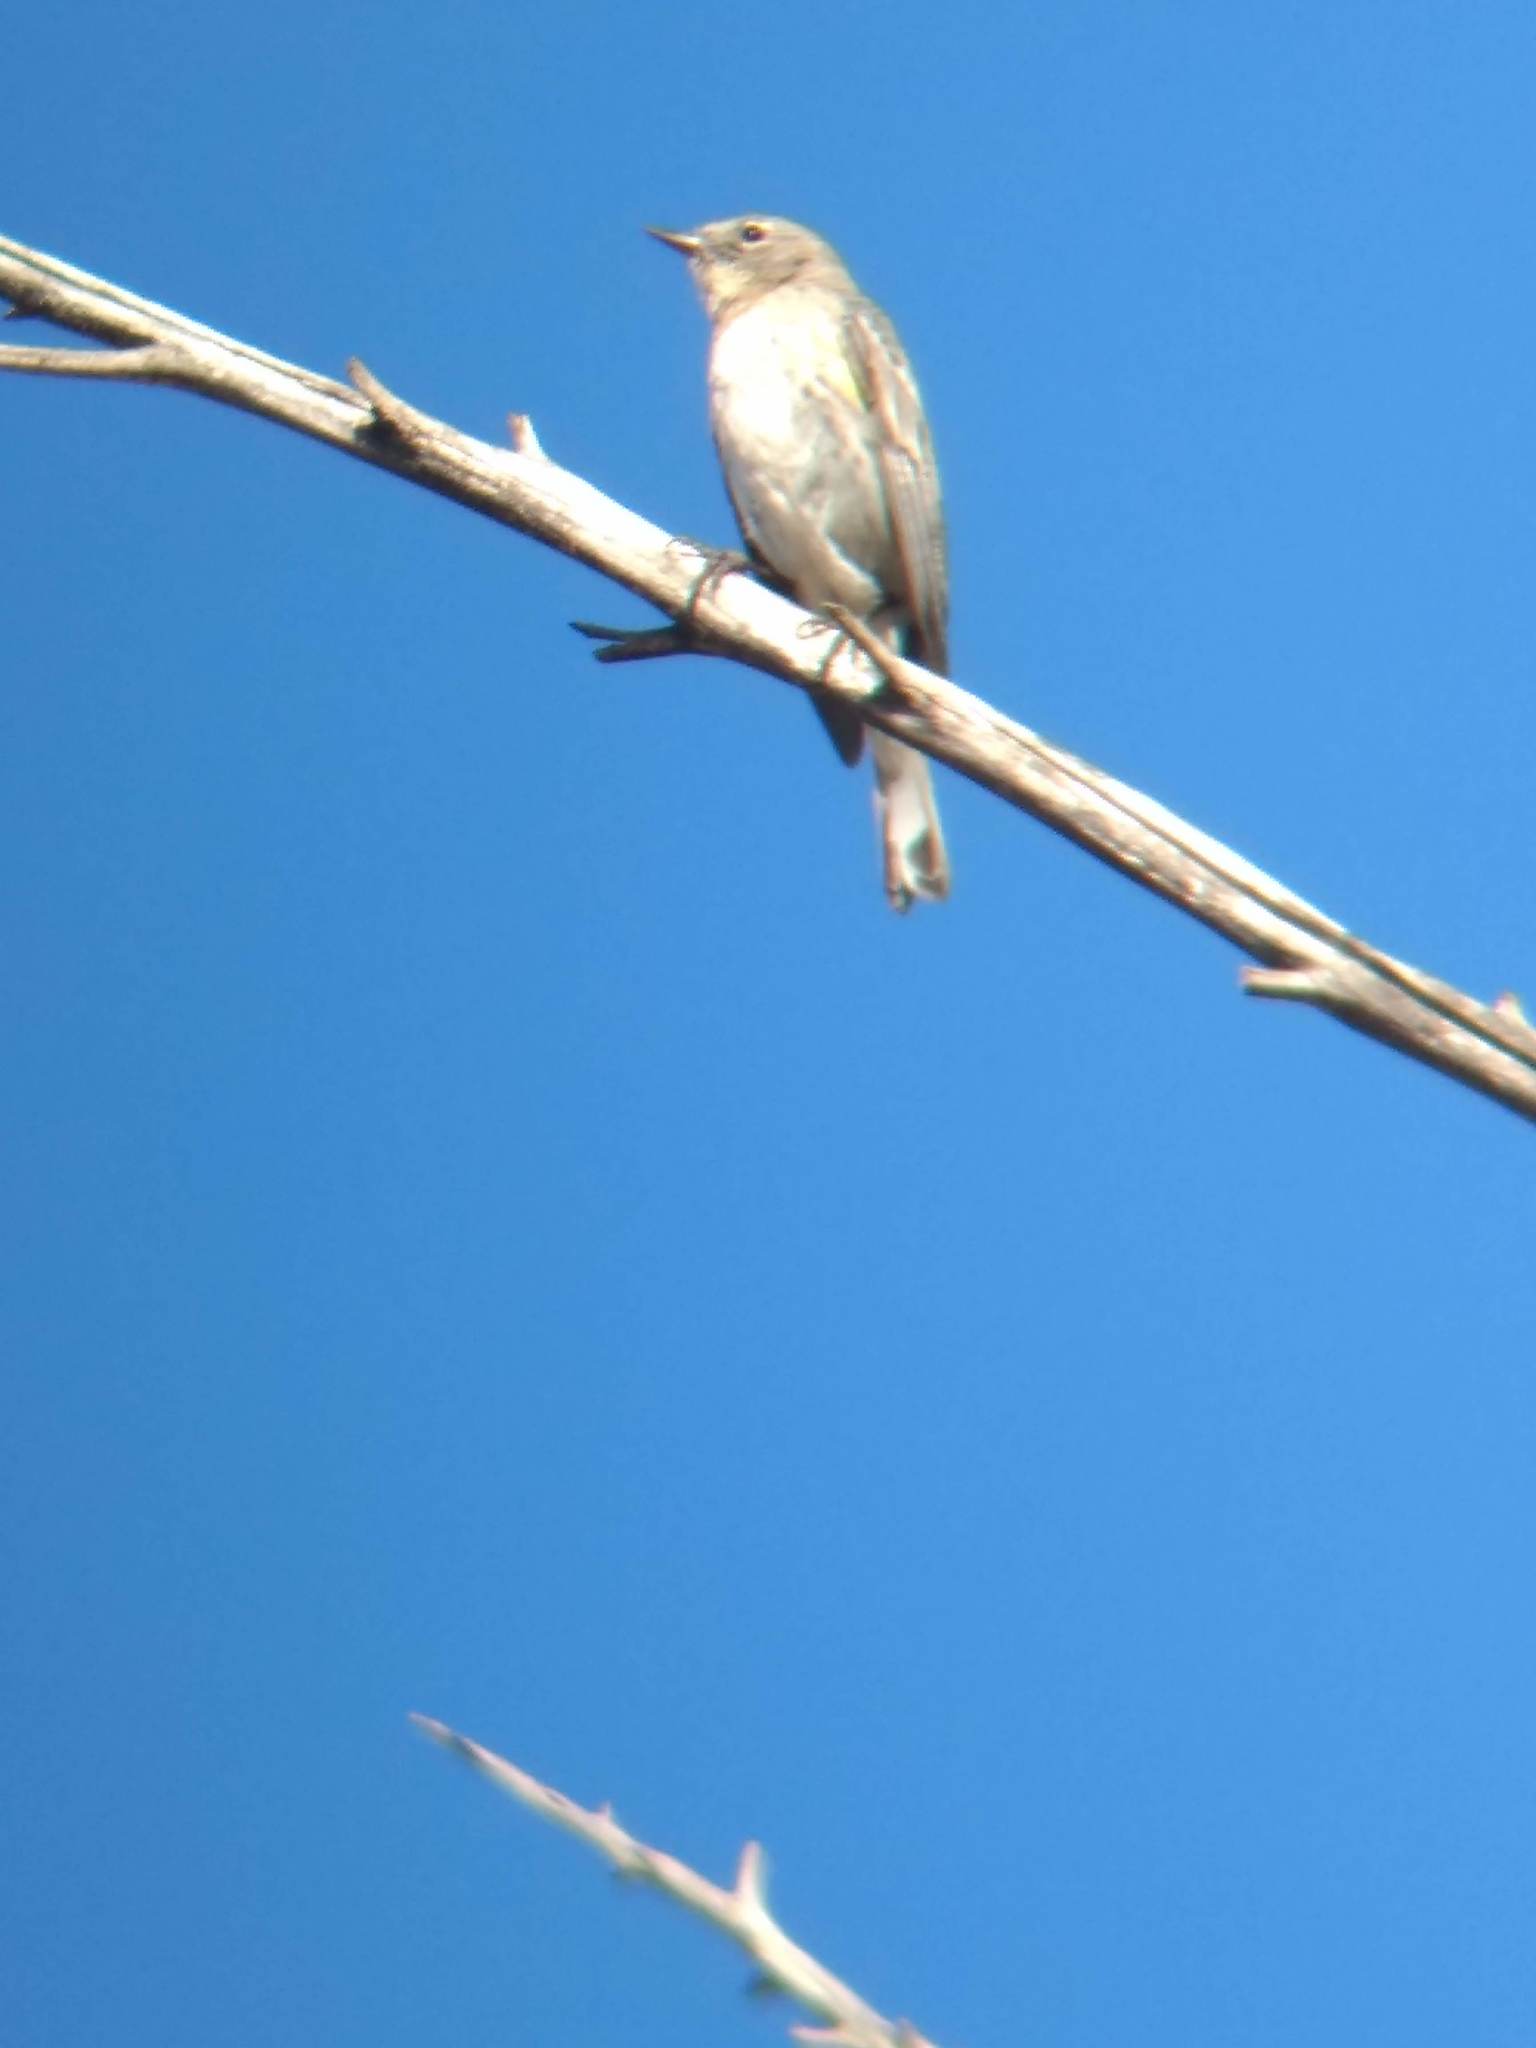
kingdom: Animalia
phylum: Chordata
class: Aves
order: Passeriformes
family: Parulidae
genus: Setophaga
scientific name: Setophaga coronata
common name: Myrtle warbler
